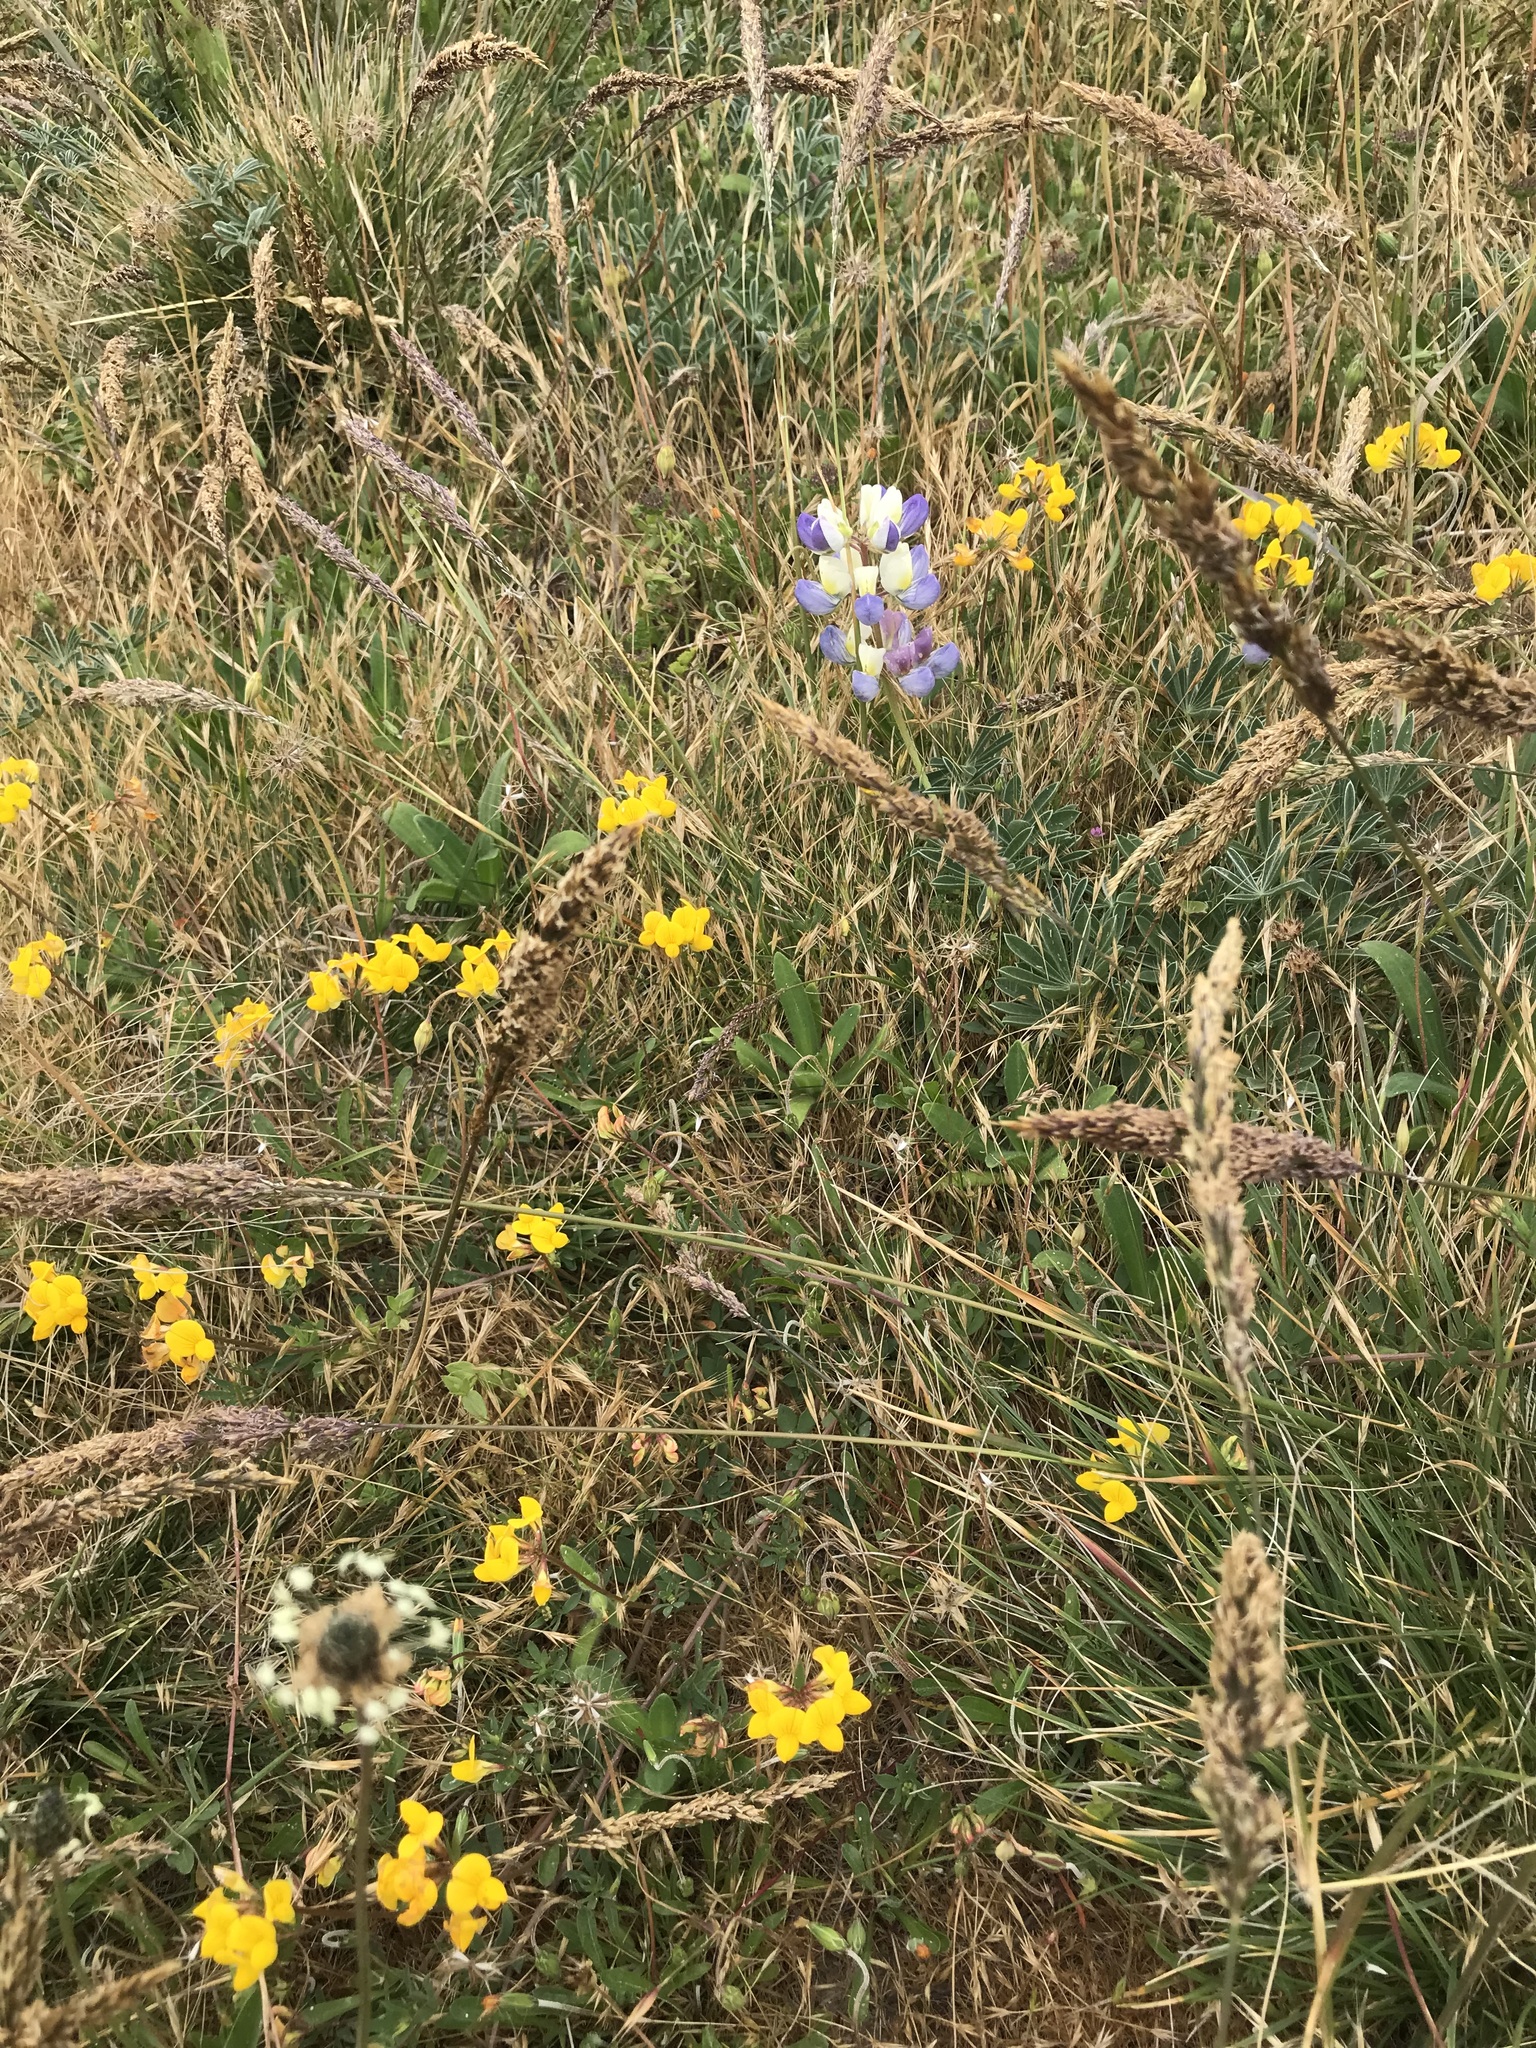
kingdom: Plantae
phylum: Tracheophyta
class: Magnoliopsida
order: Fabales
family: Fabaceae
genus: Lupinus
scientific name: Lupinus variicolor
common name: Lindley's varied lupine
